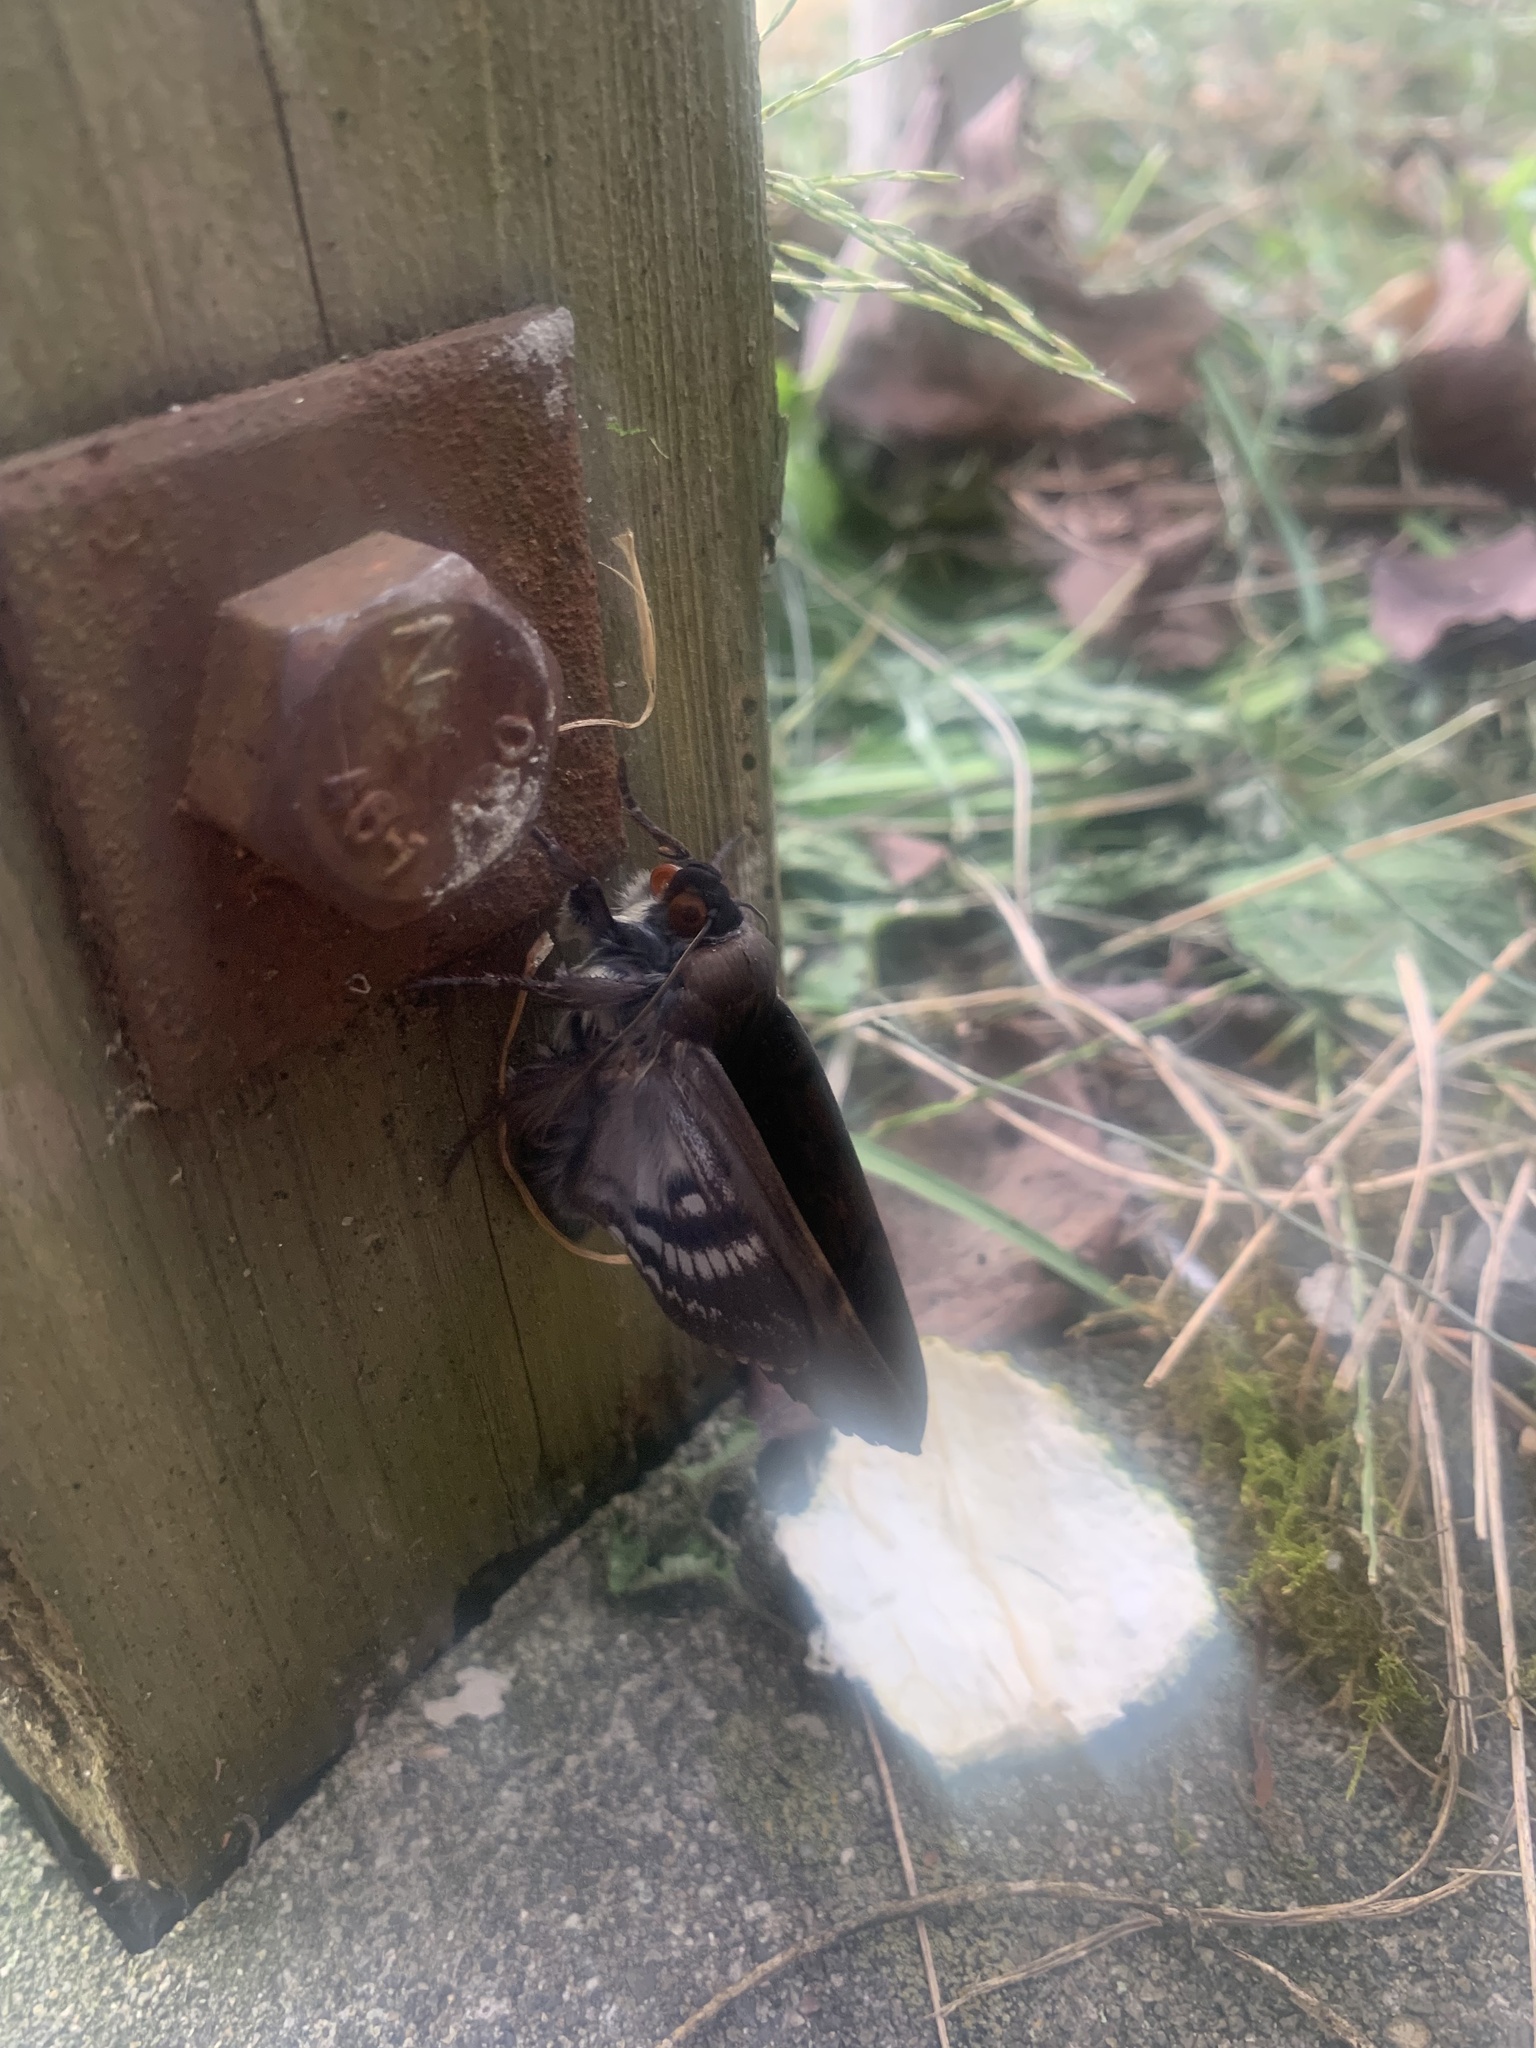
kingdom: Animalia
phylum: Arthropoda
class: Insecta
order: Lepidoptera
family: Erebidae
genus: Arcte
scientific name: Arcte coerula
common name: Ramie moth
